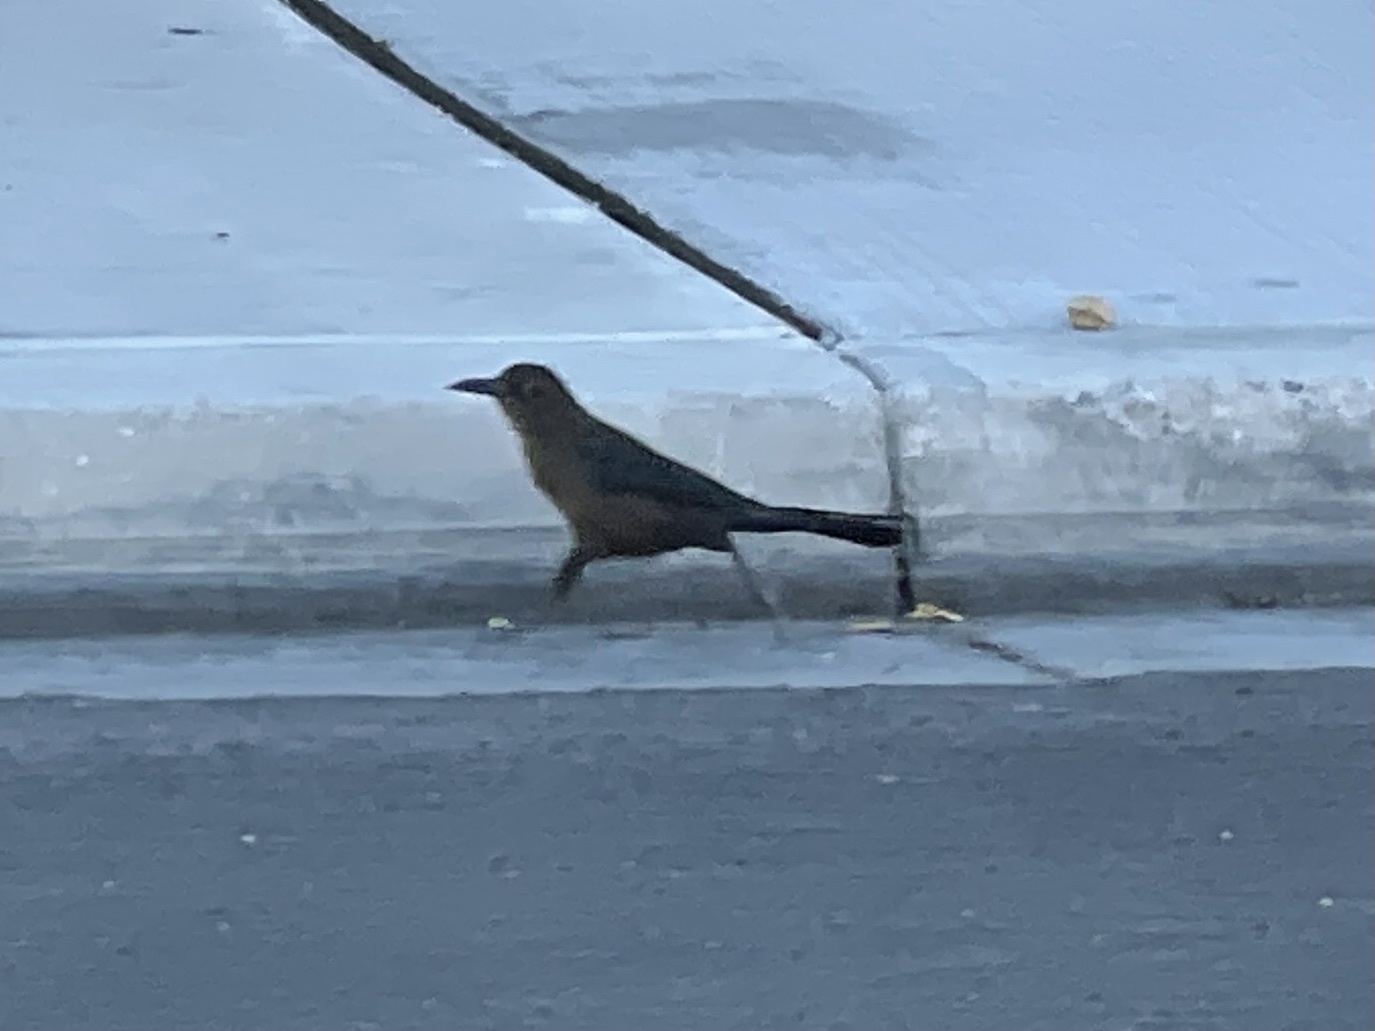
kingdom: Animalia
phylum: Chordata
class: Aves
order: Passeriformes
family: Icteridae
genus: Quiscalus
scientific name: Quiscalus mexicanus
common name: Great-tailed grackle
